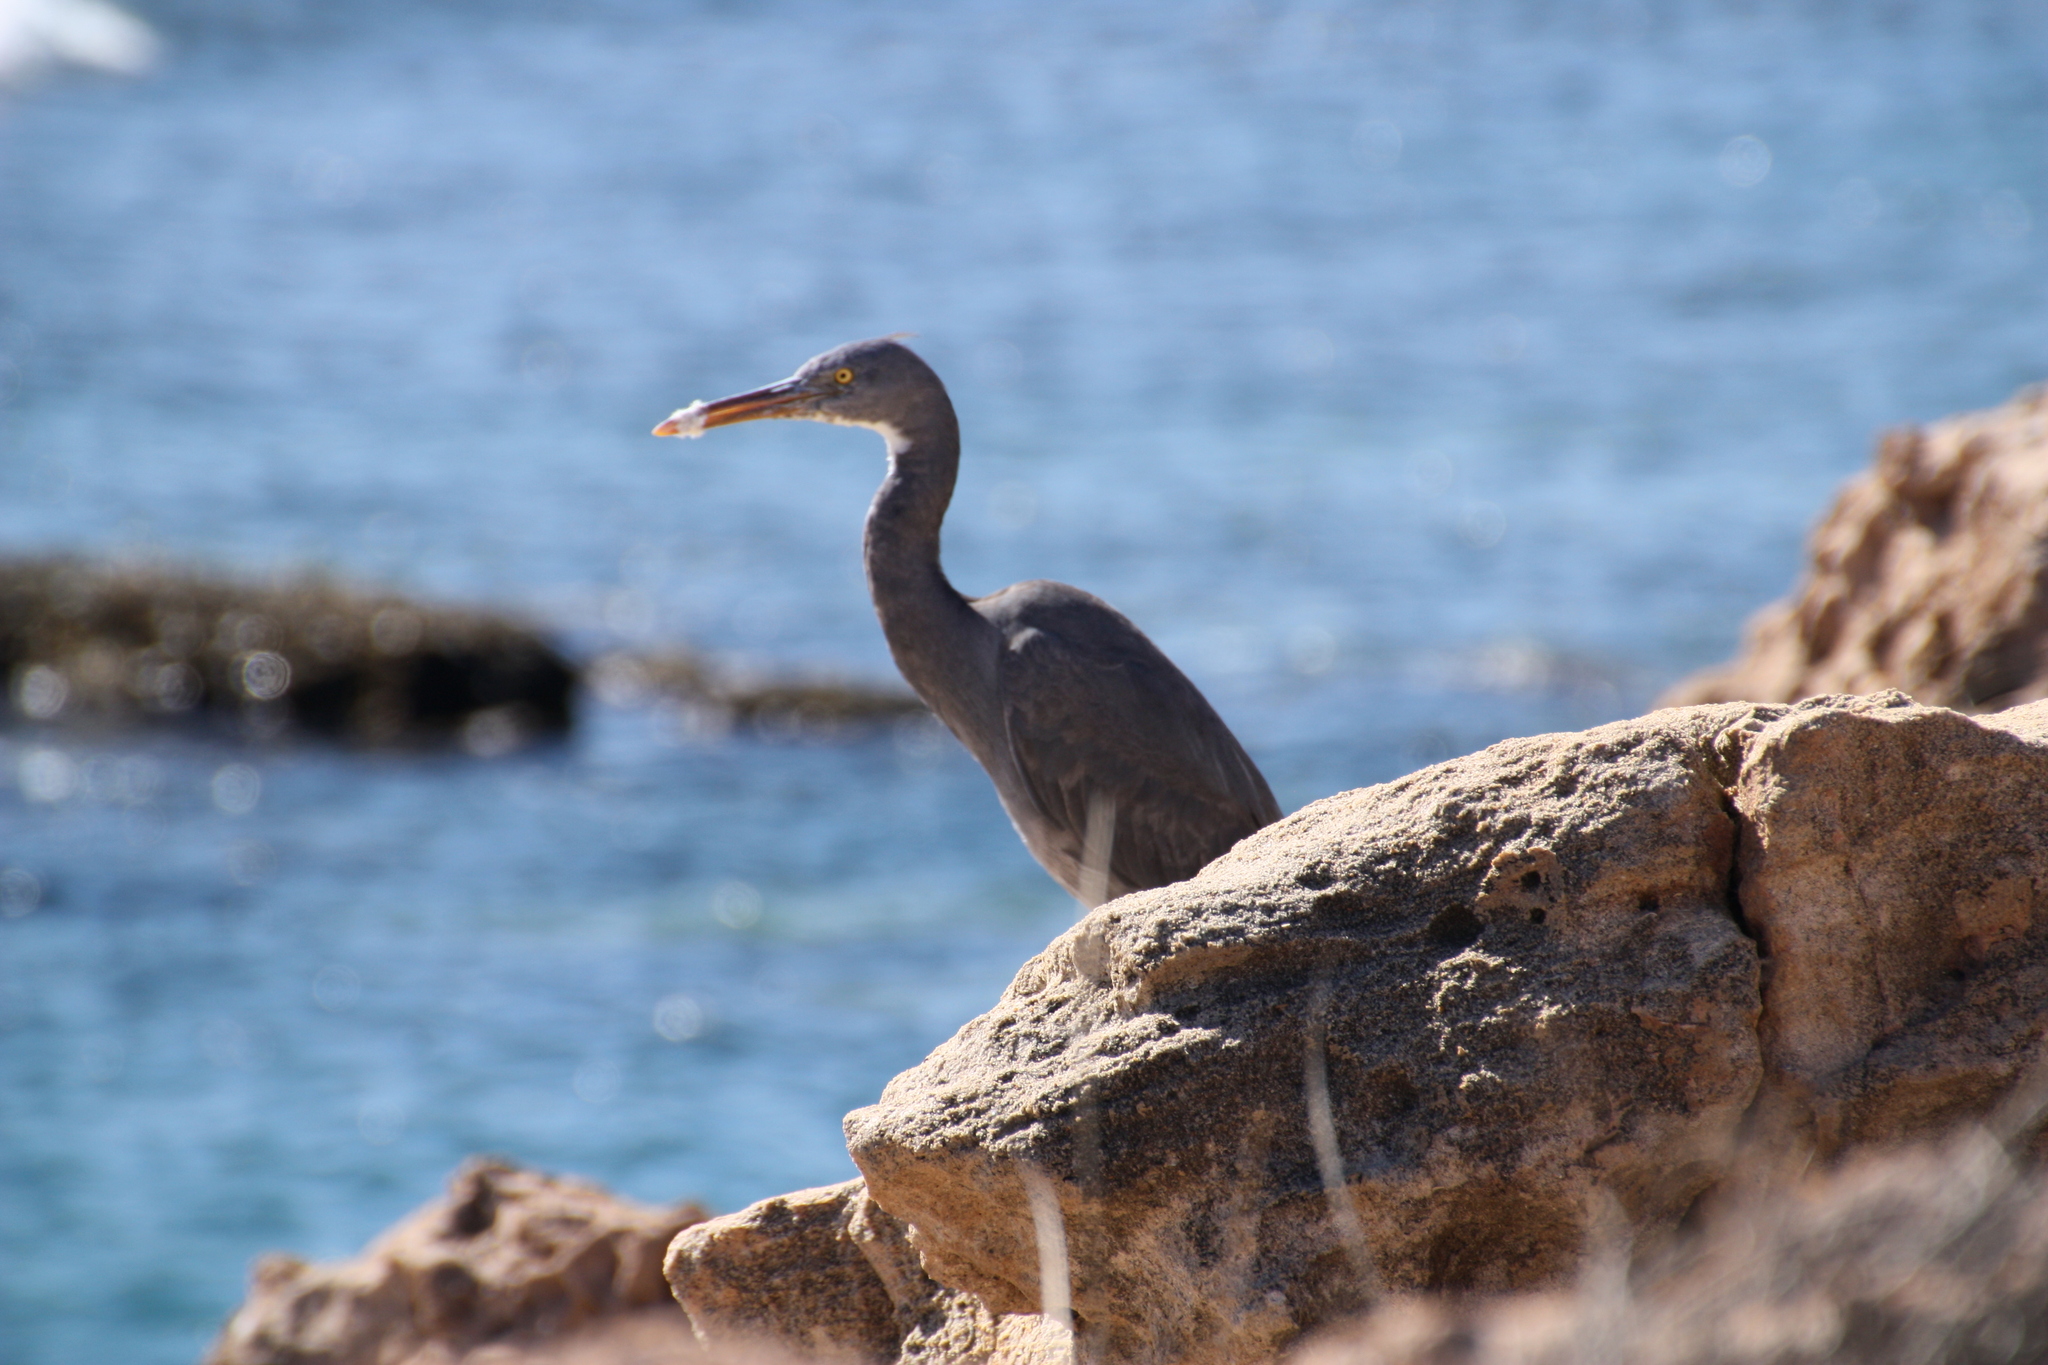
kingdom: Animalia
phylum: Chordata
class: Aves
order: Pelecaniformes
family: Ardeidae
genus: Egretta
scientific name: Egretta sacra
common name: Pacific reef heron
